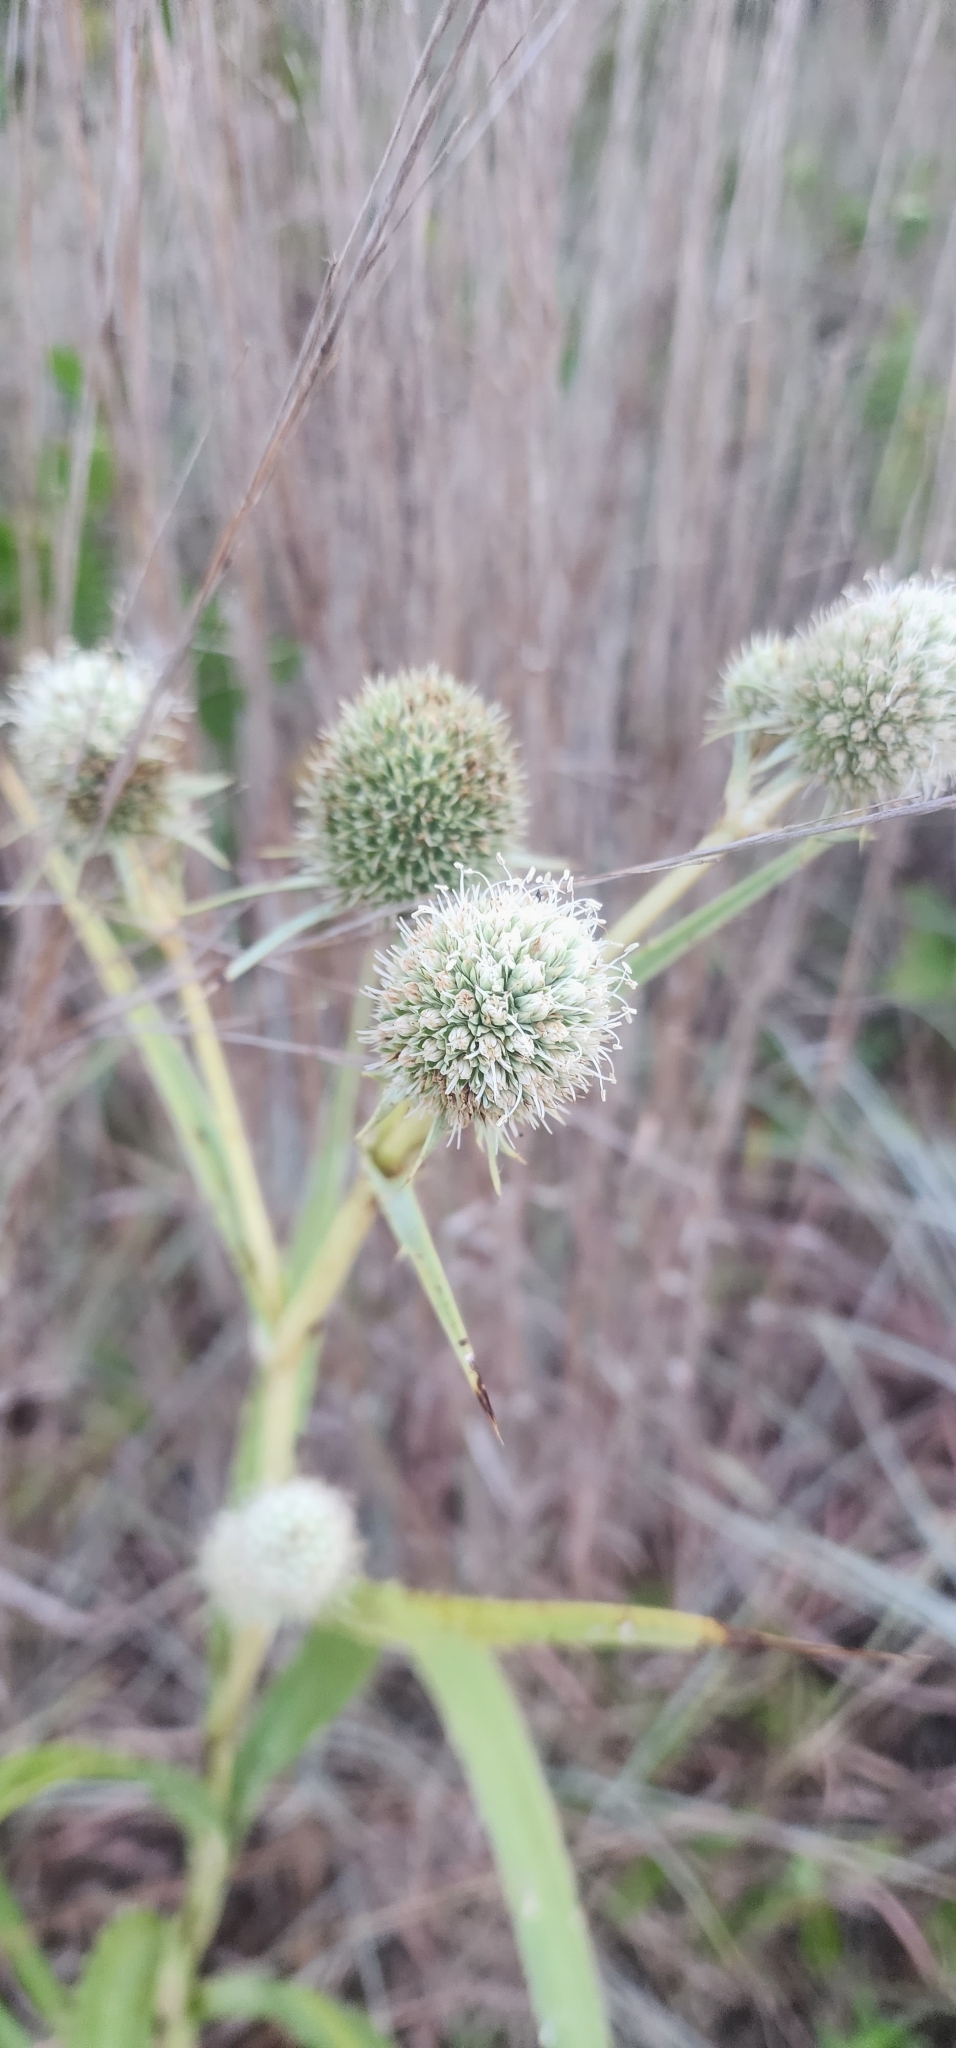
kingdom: Plantae
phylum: Tracheophyta
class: Magnoliopsida
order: Apiales
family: Apiaceae
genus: Eryngium
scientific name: Eryngium yuccifolium
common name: Button eryngo
